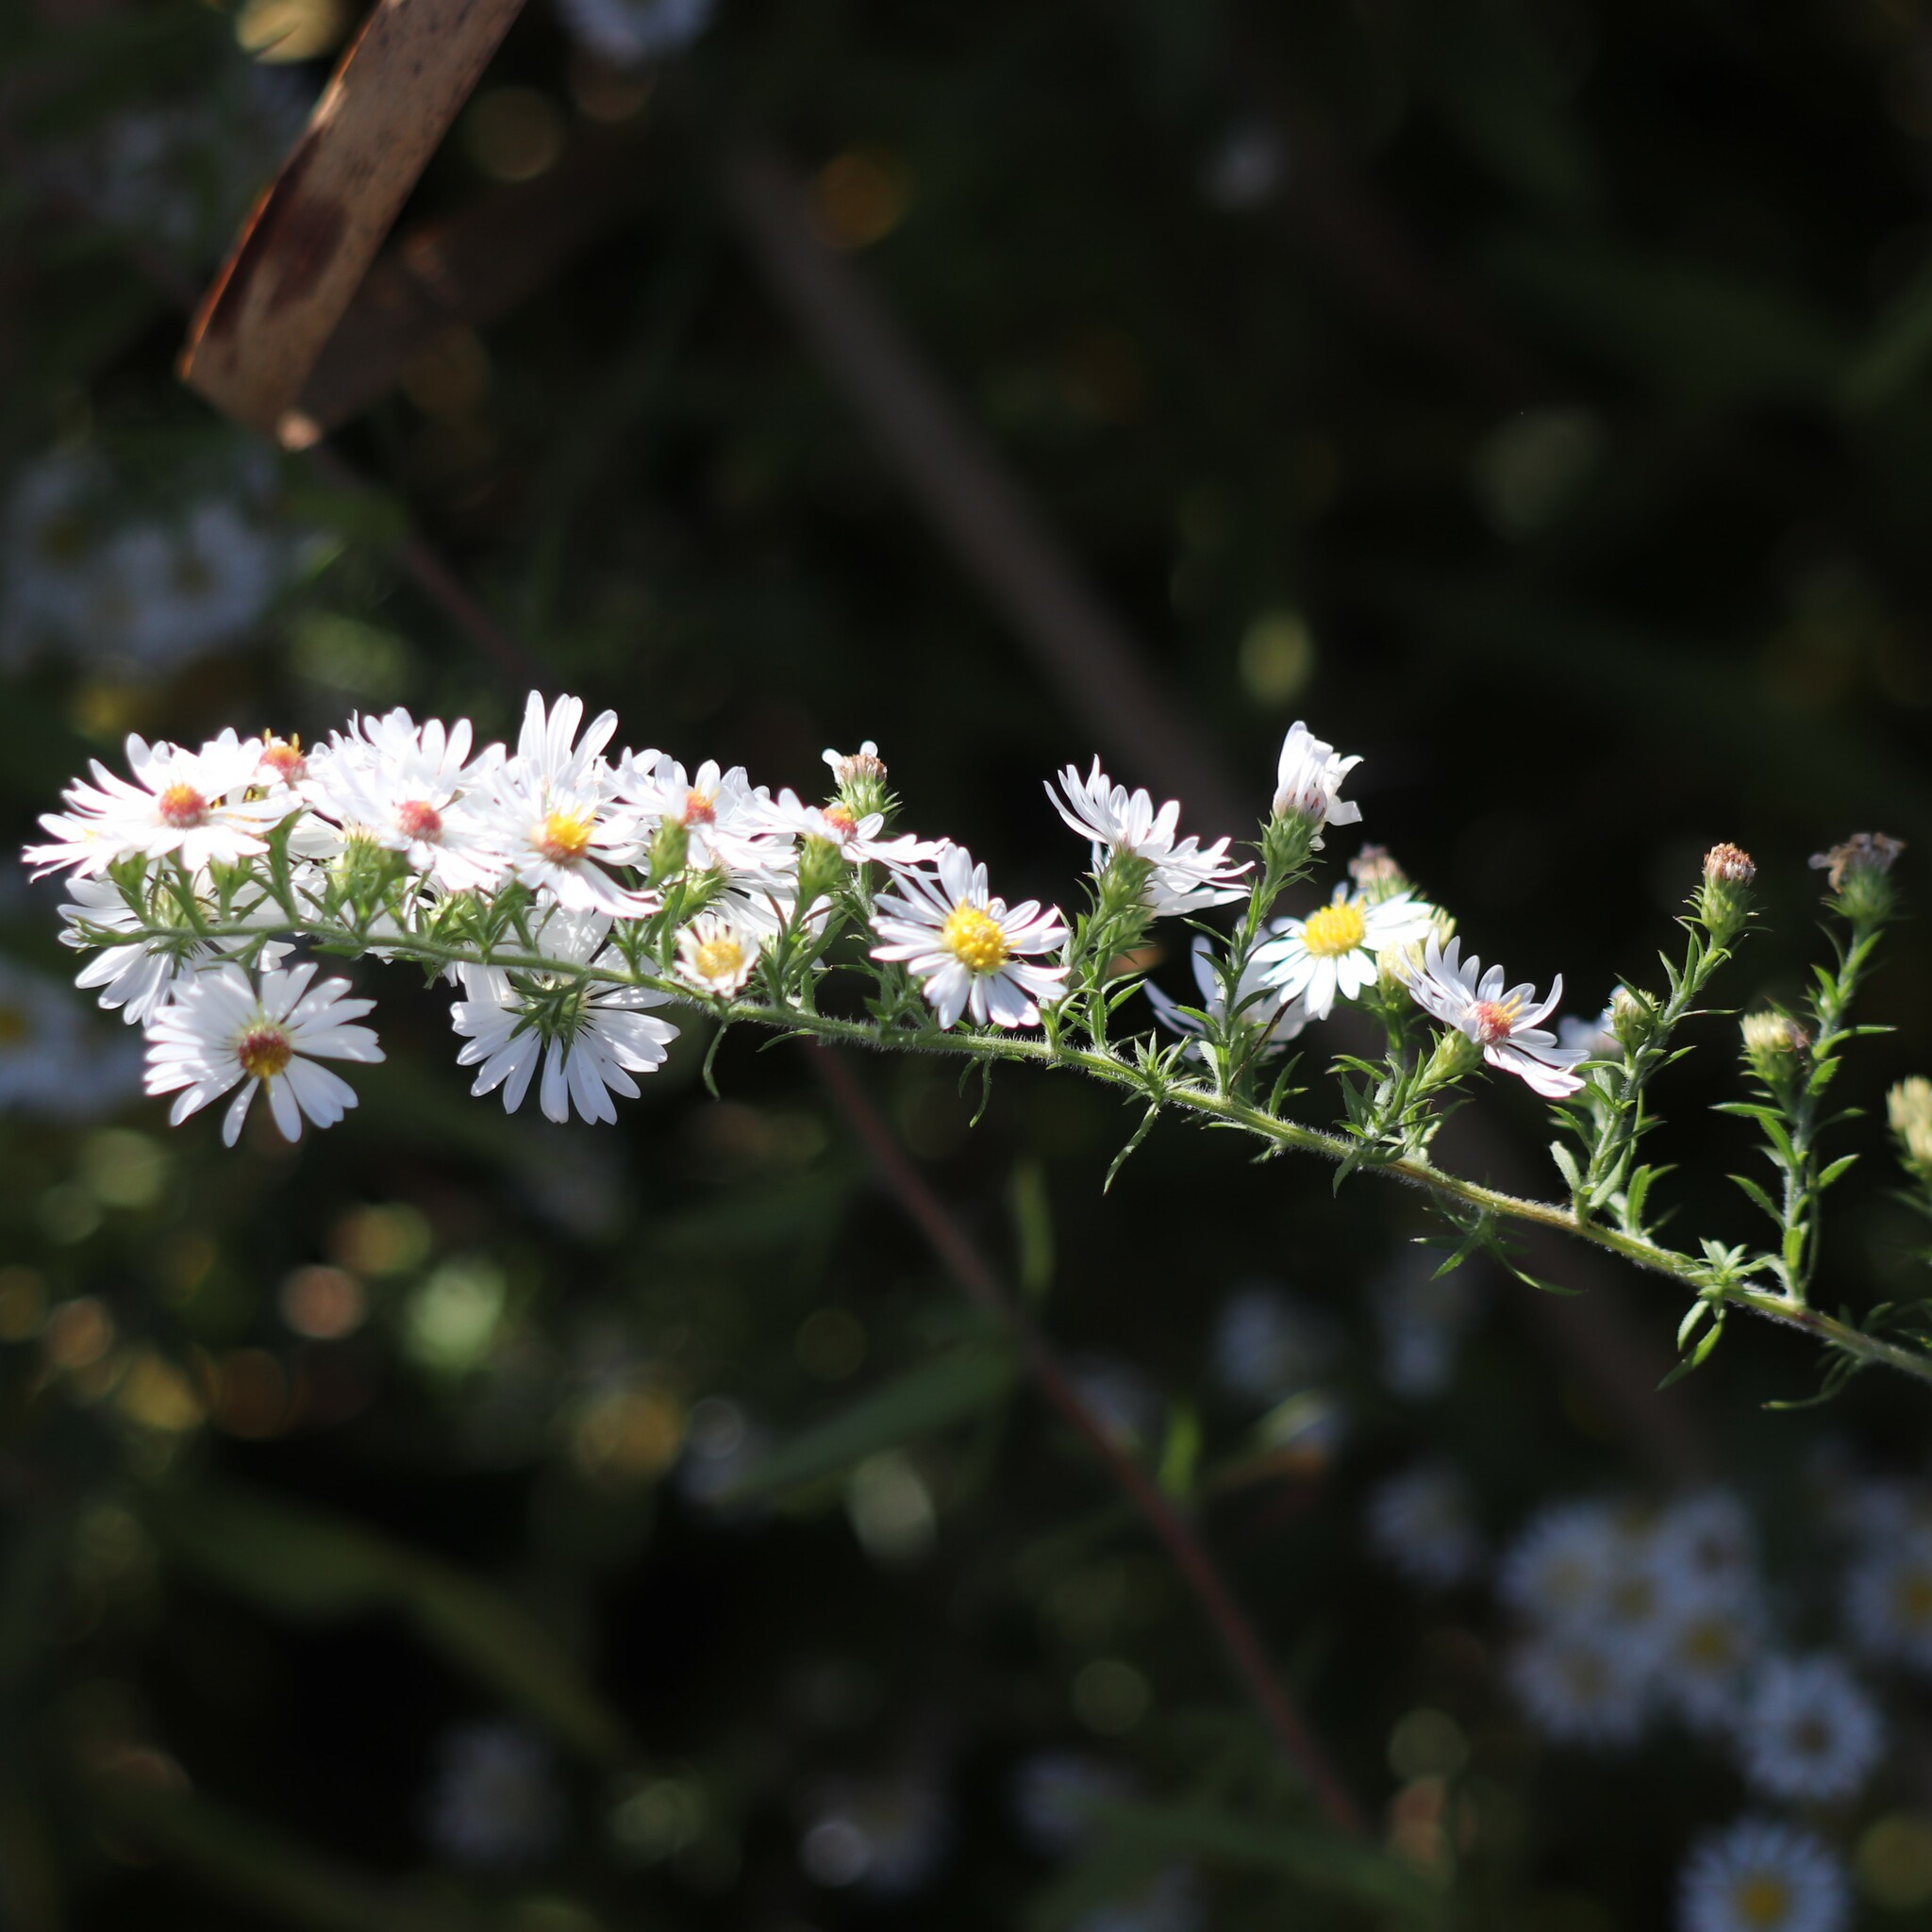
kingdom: Plantae
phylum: Tracheophyta
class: Magnoliopsida
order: Asterales
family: Asteraceae
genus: Symphyotrichum
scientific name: Symphyotrichum racemosum
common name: Small white aster
